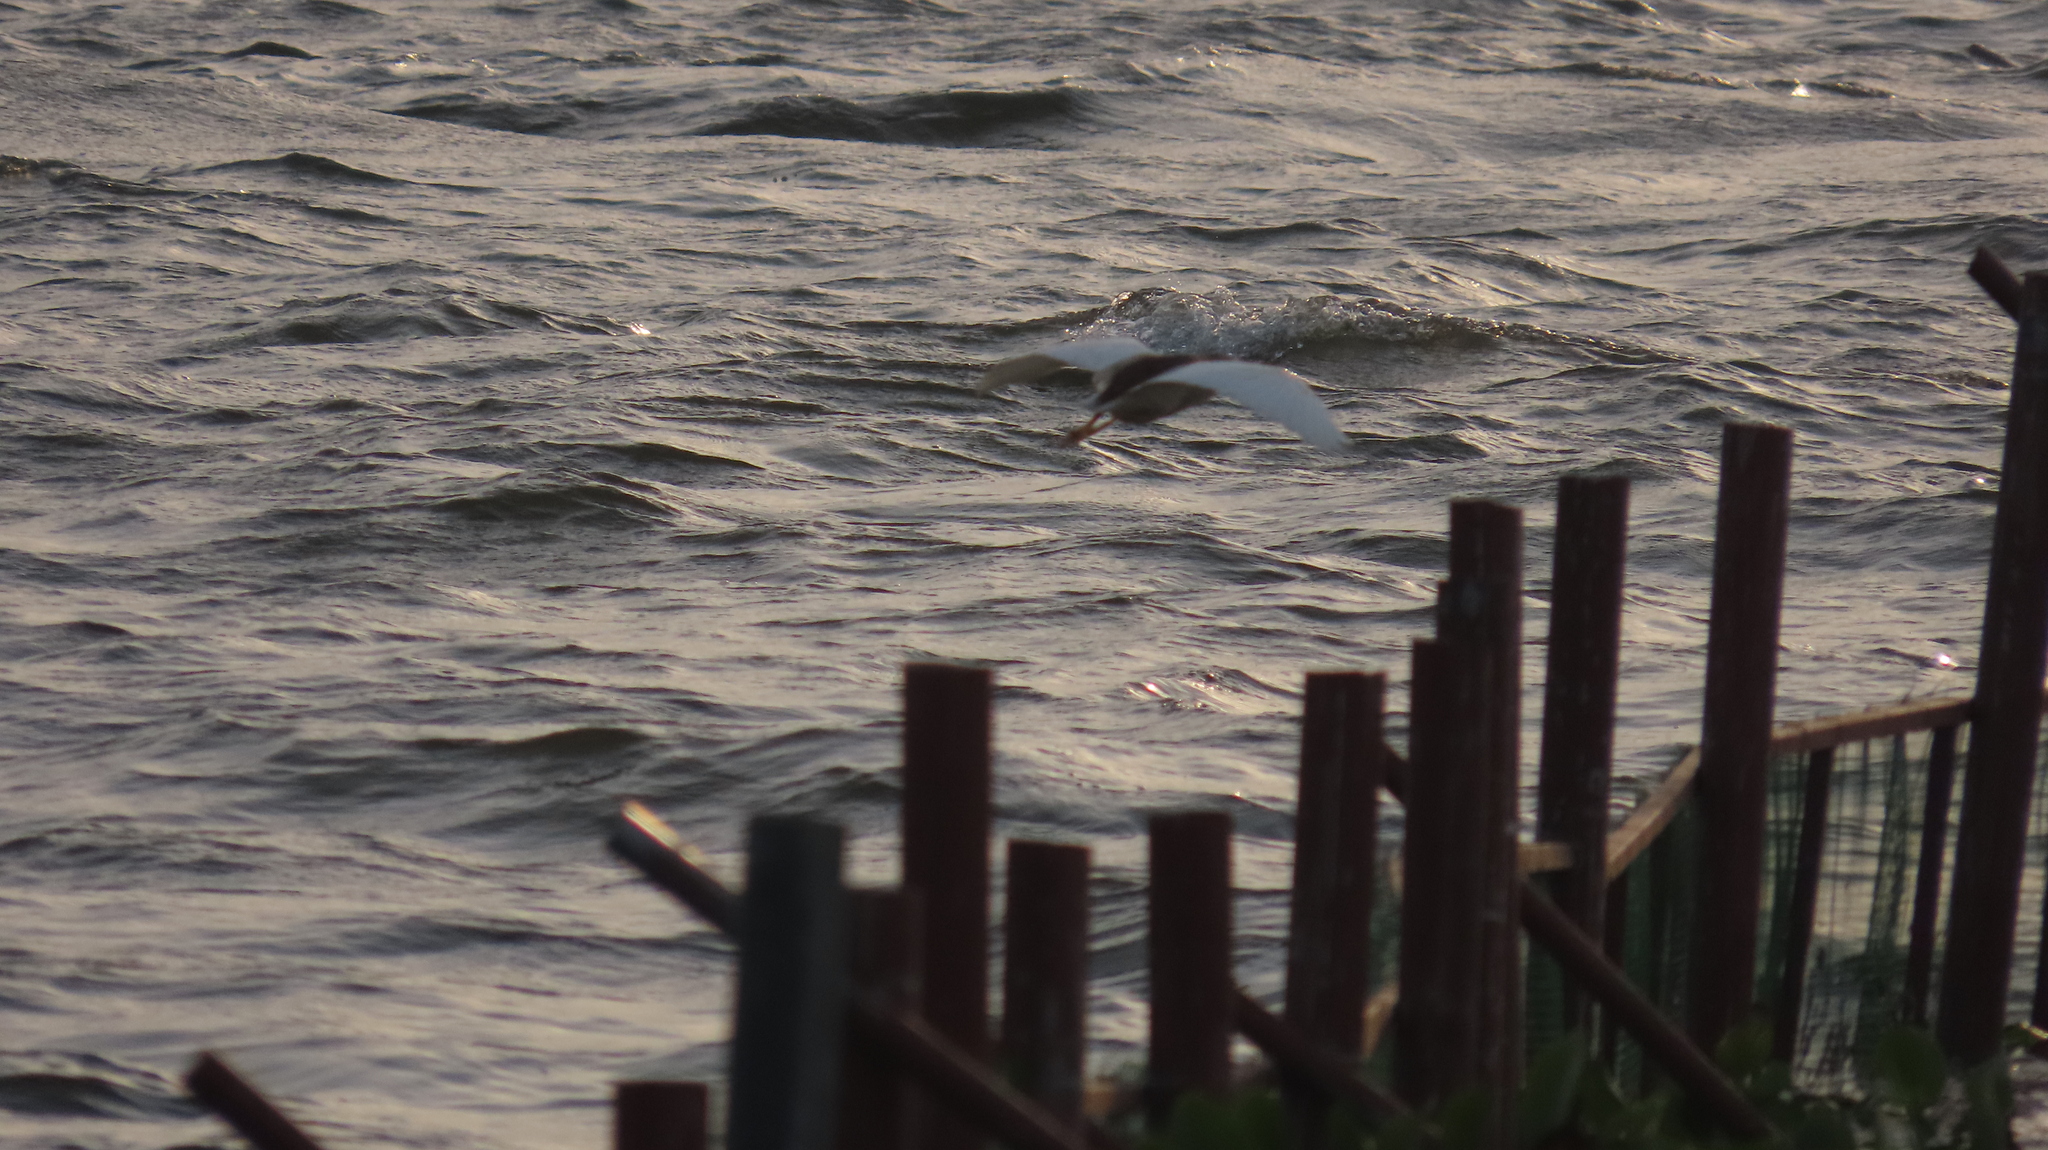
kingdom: Animalia
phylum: Chordata
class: Aves
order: Pelecaniformes
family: Ardeidae
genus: Ardeola
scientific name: Ardeola grayii
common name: Indian pond heron
